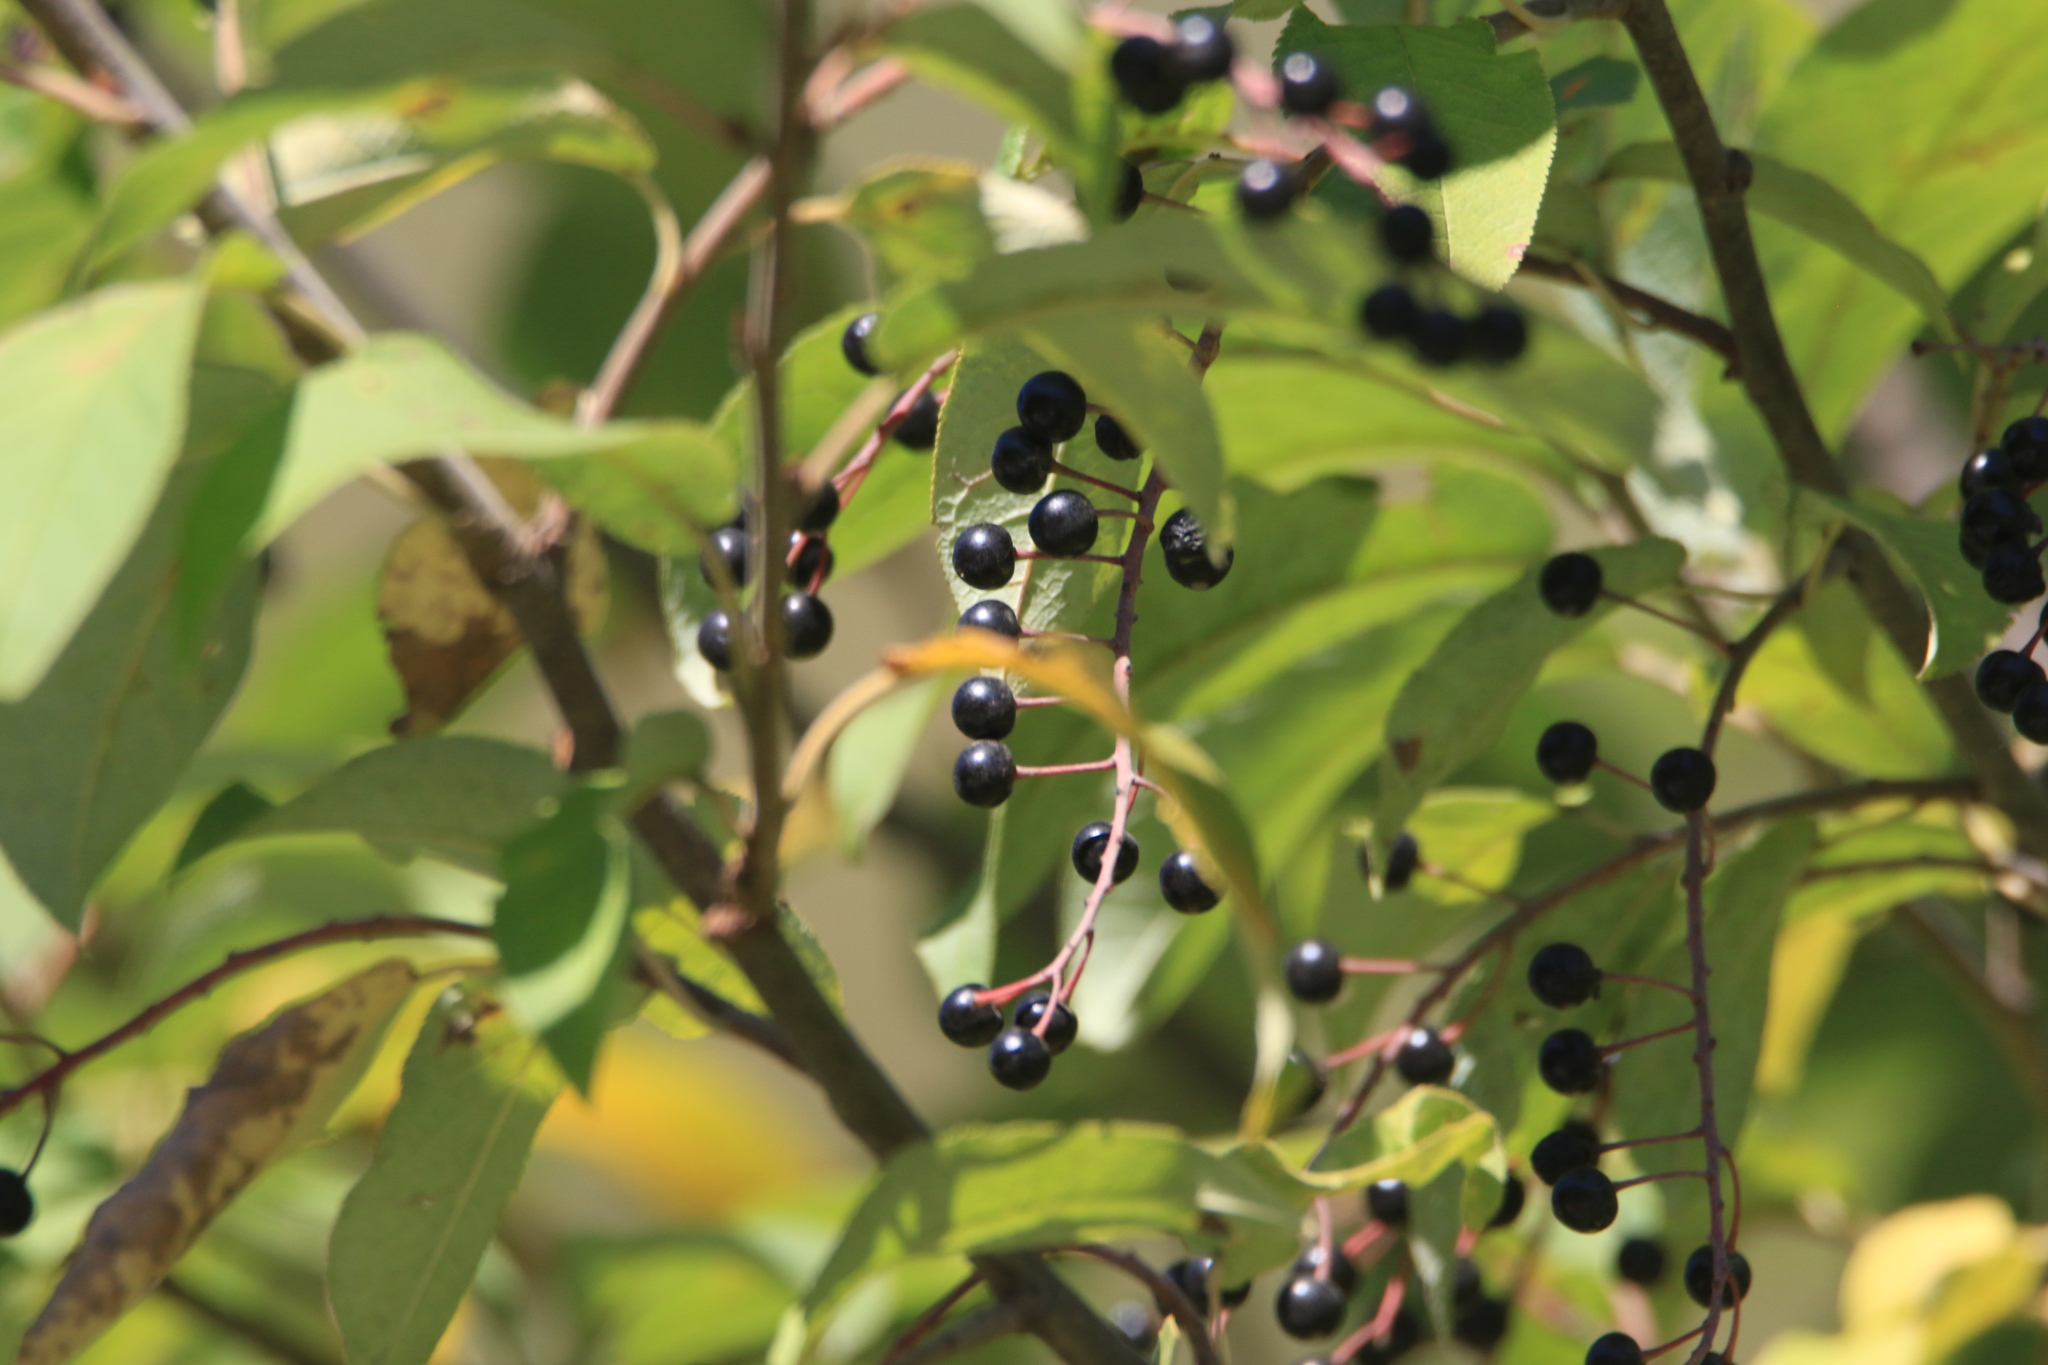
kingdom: Plantae
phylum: Tracheophyta
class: Magnoliopsida
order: Rosales
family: Rosaceae
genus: Prunus
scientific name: Prunus padus
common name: Bird cherry
